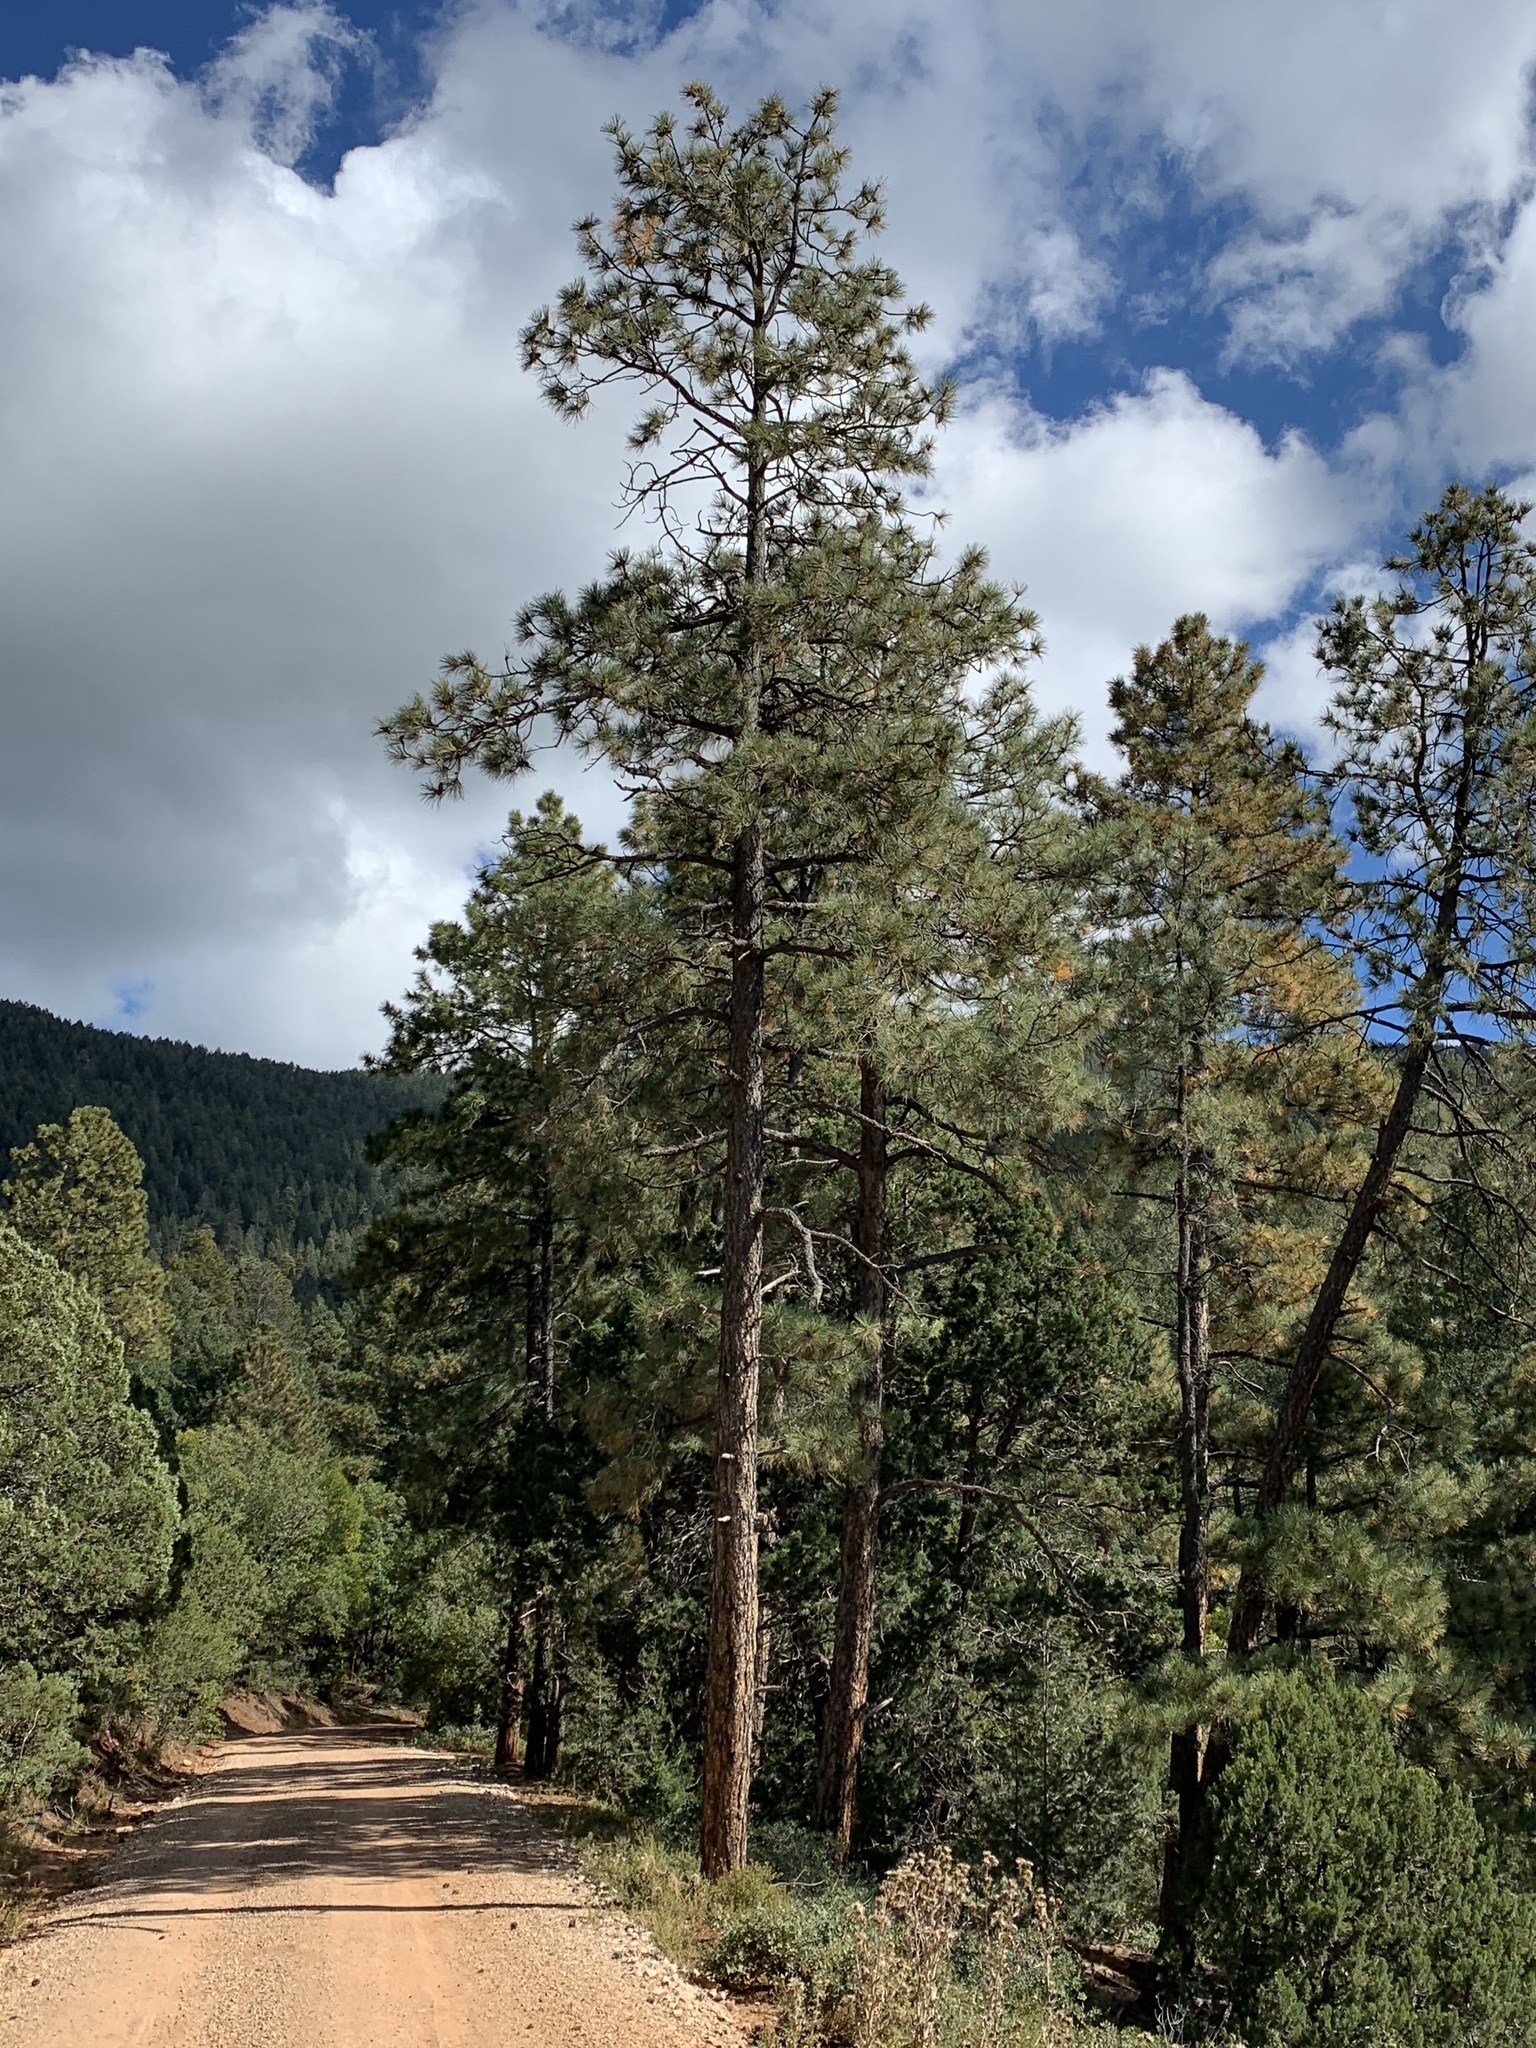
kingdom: Plantae
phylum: Tracheophyta
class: Pinopsida
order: Pinales
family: Pinaceae
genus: Pinus
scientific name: Pinus ponderosa
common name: Western yellow-pine
